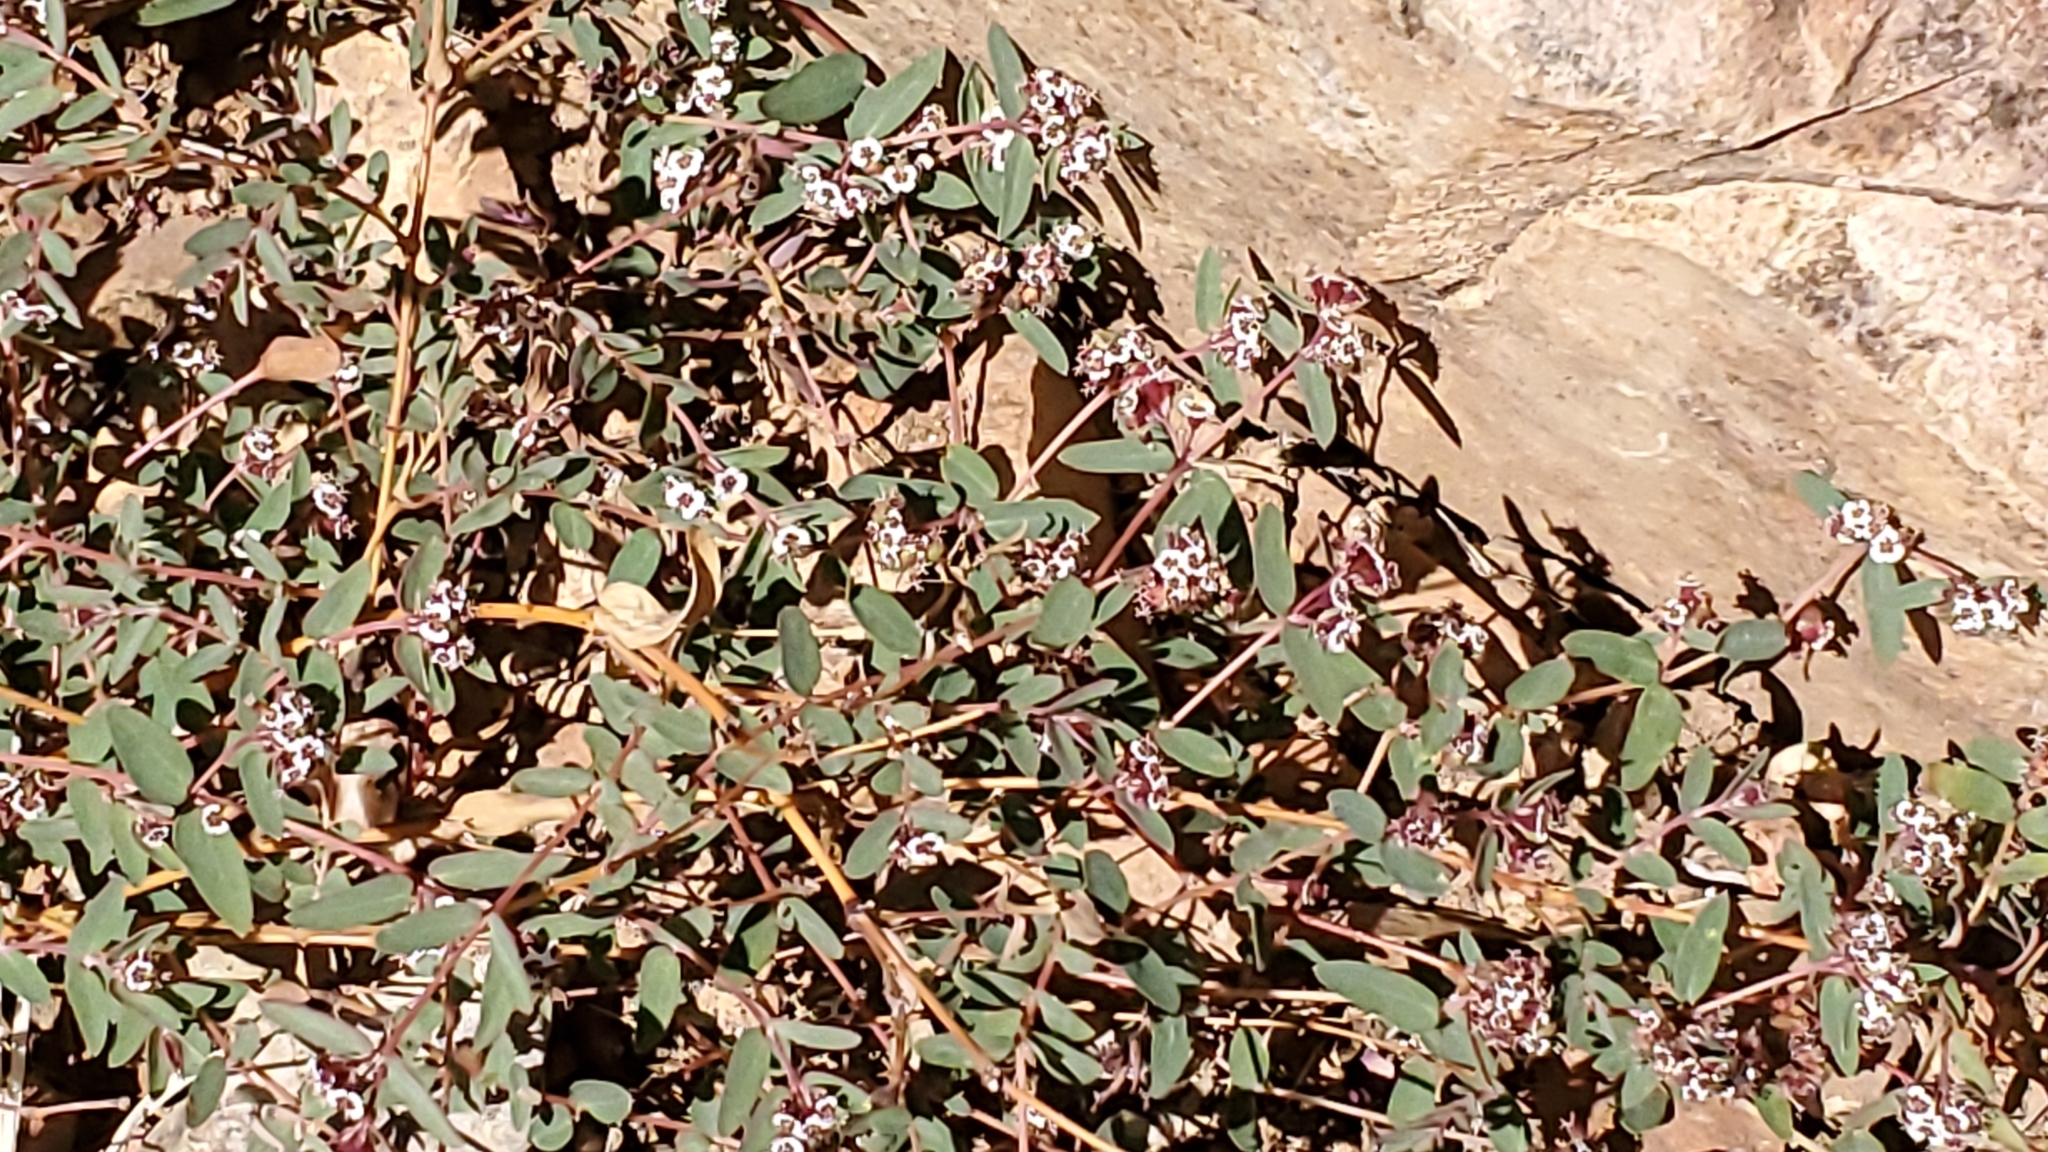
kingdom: Plantae
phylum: Tracheophyta
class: Magnoliopsida
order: Malpighiales
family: Euphorbiaceae
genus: Euphorbia
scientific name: Euphorbia capitellata
